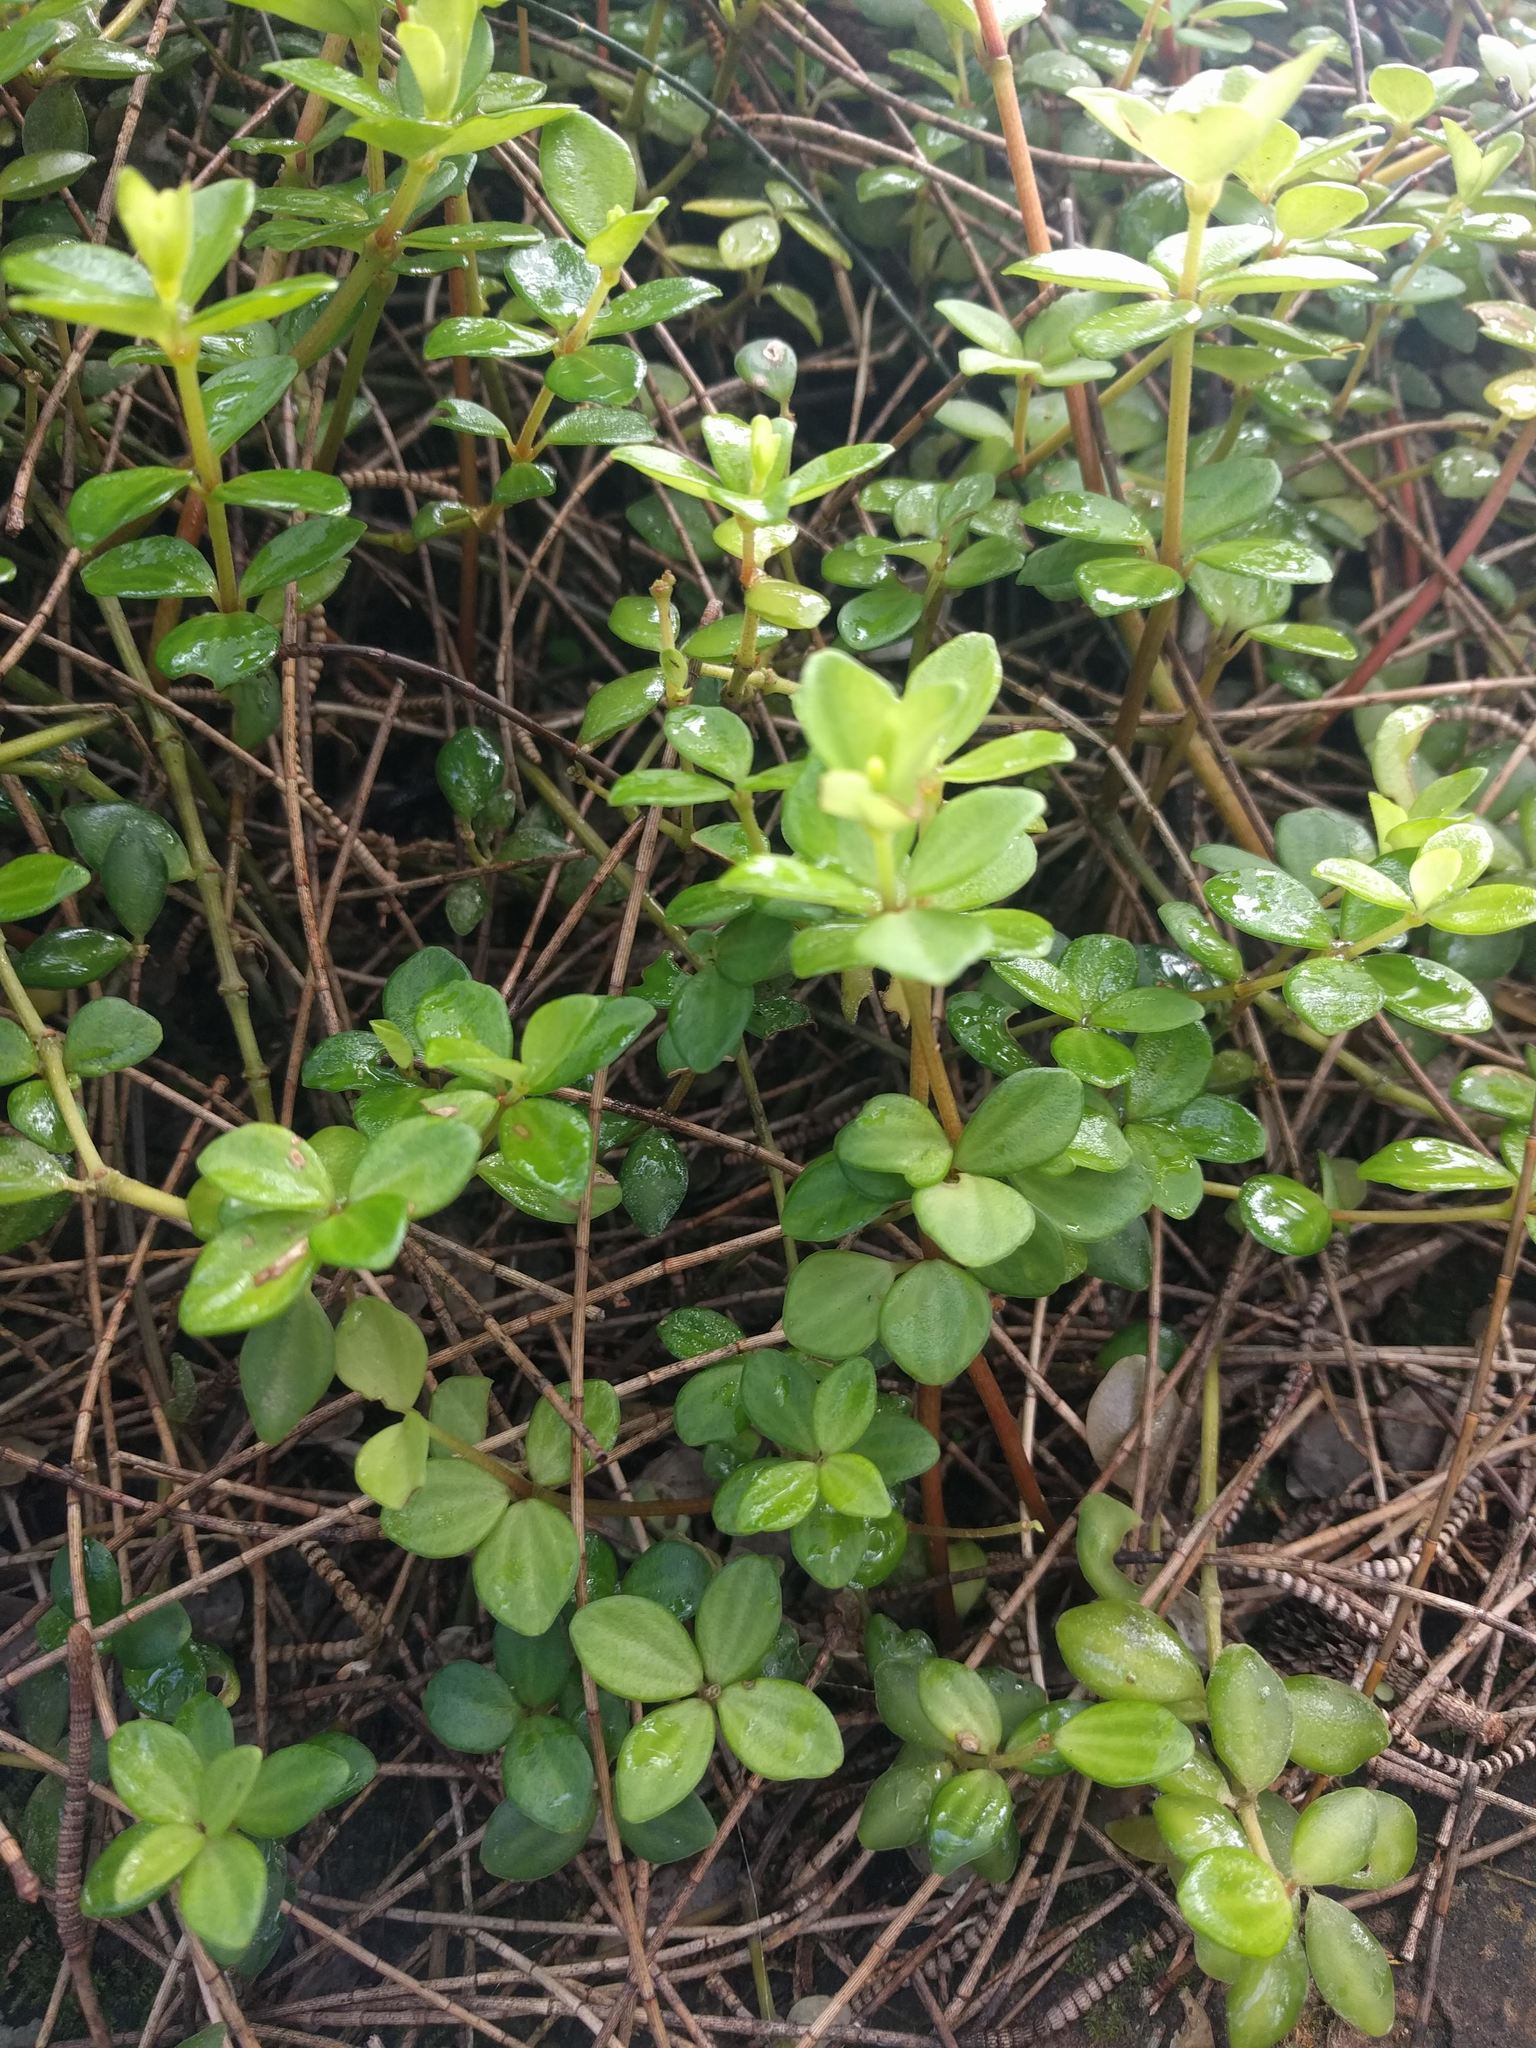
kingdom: Plantae
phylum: Tracheophyta
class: Magnoliopsida
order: Piperales
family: Piperaceae
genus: Peperomia
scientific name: Peperomia tetraphylla
